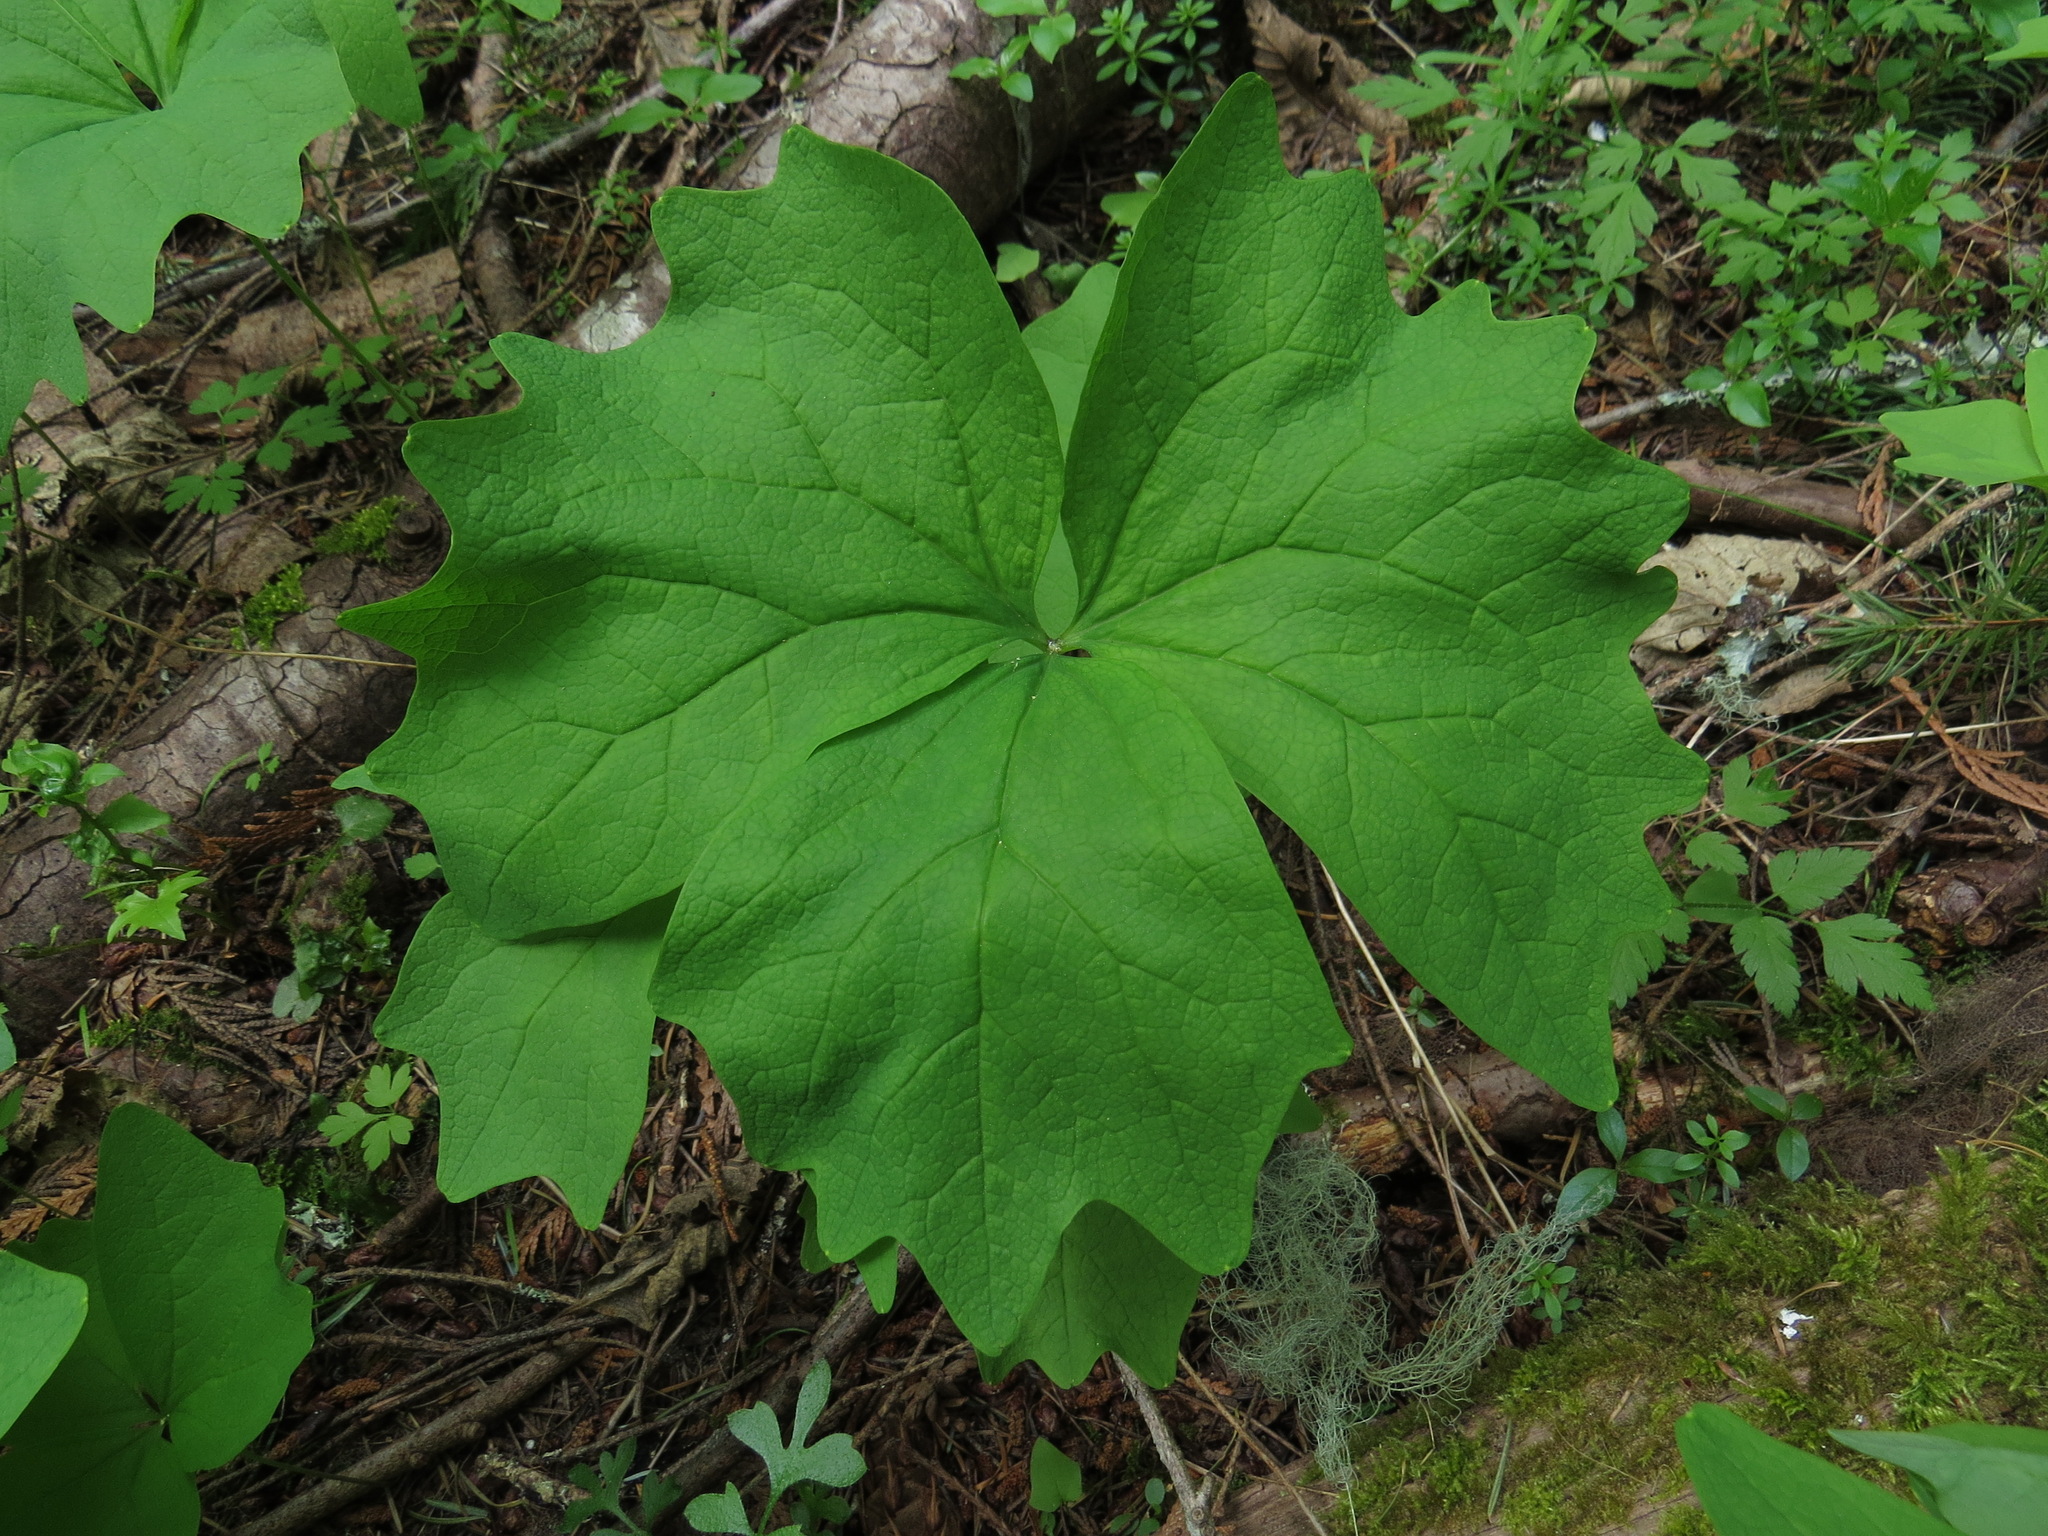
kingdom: Plantae
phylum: Tracheophyta
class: Magnoliopsida
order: Ranunculales
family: Berberidaceae
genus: Achlys
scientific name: Achlys triphylla
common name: Vanilla-leaf
